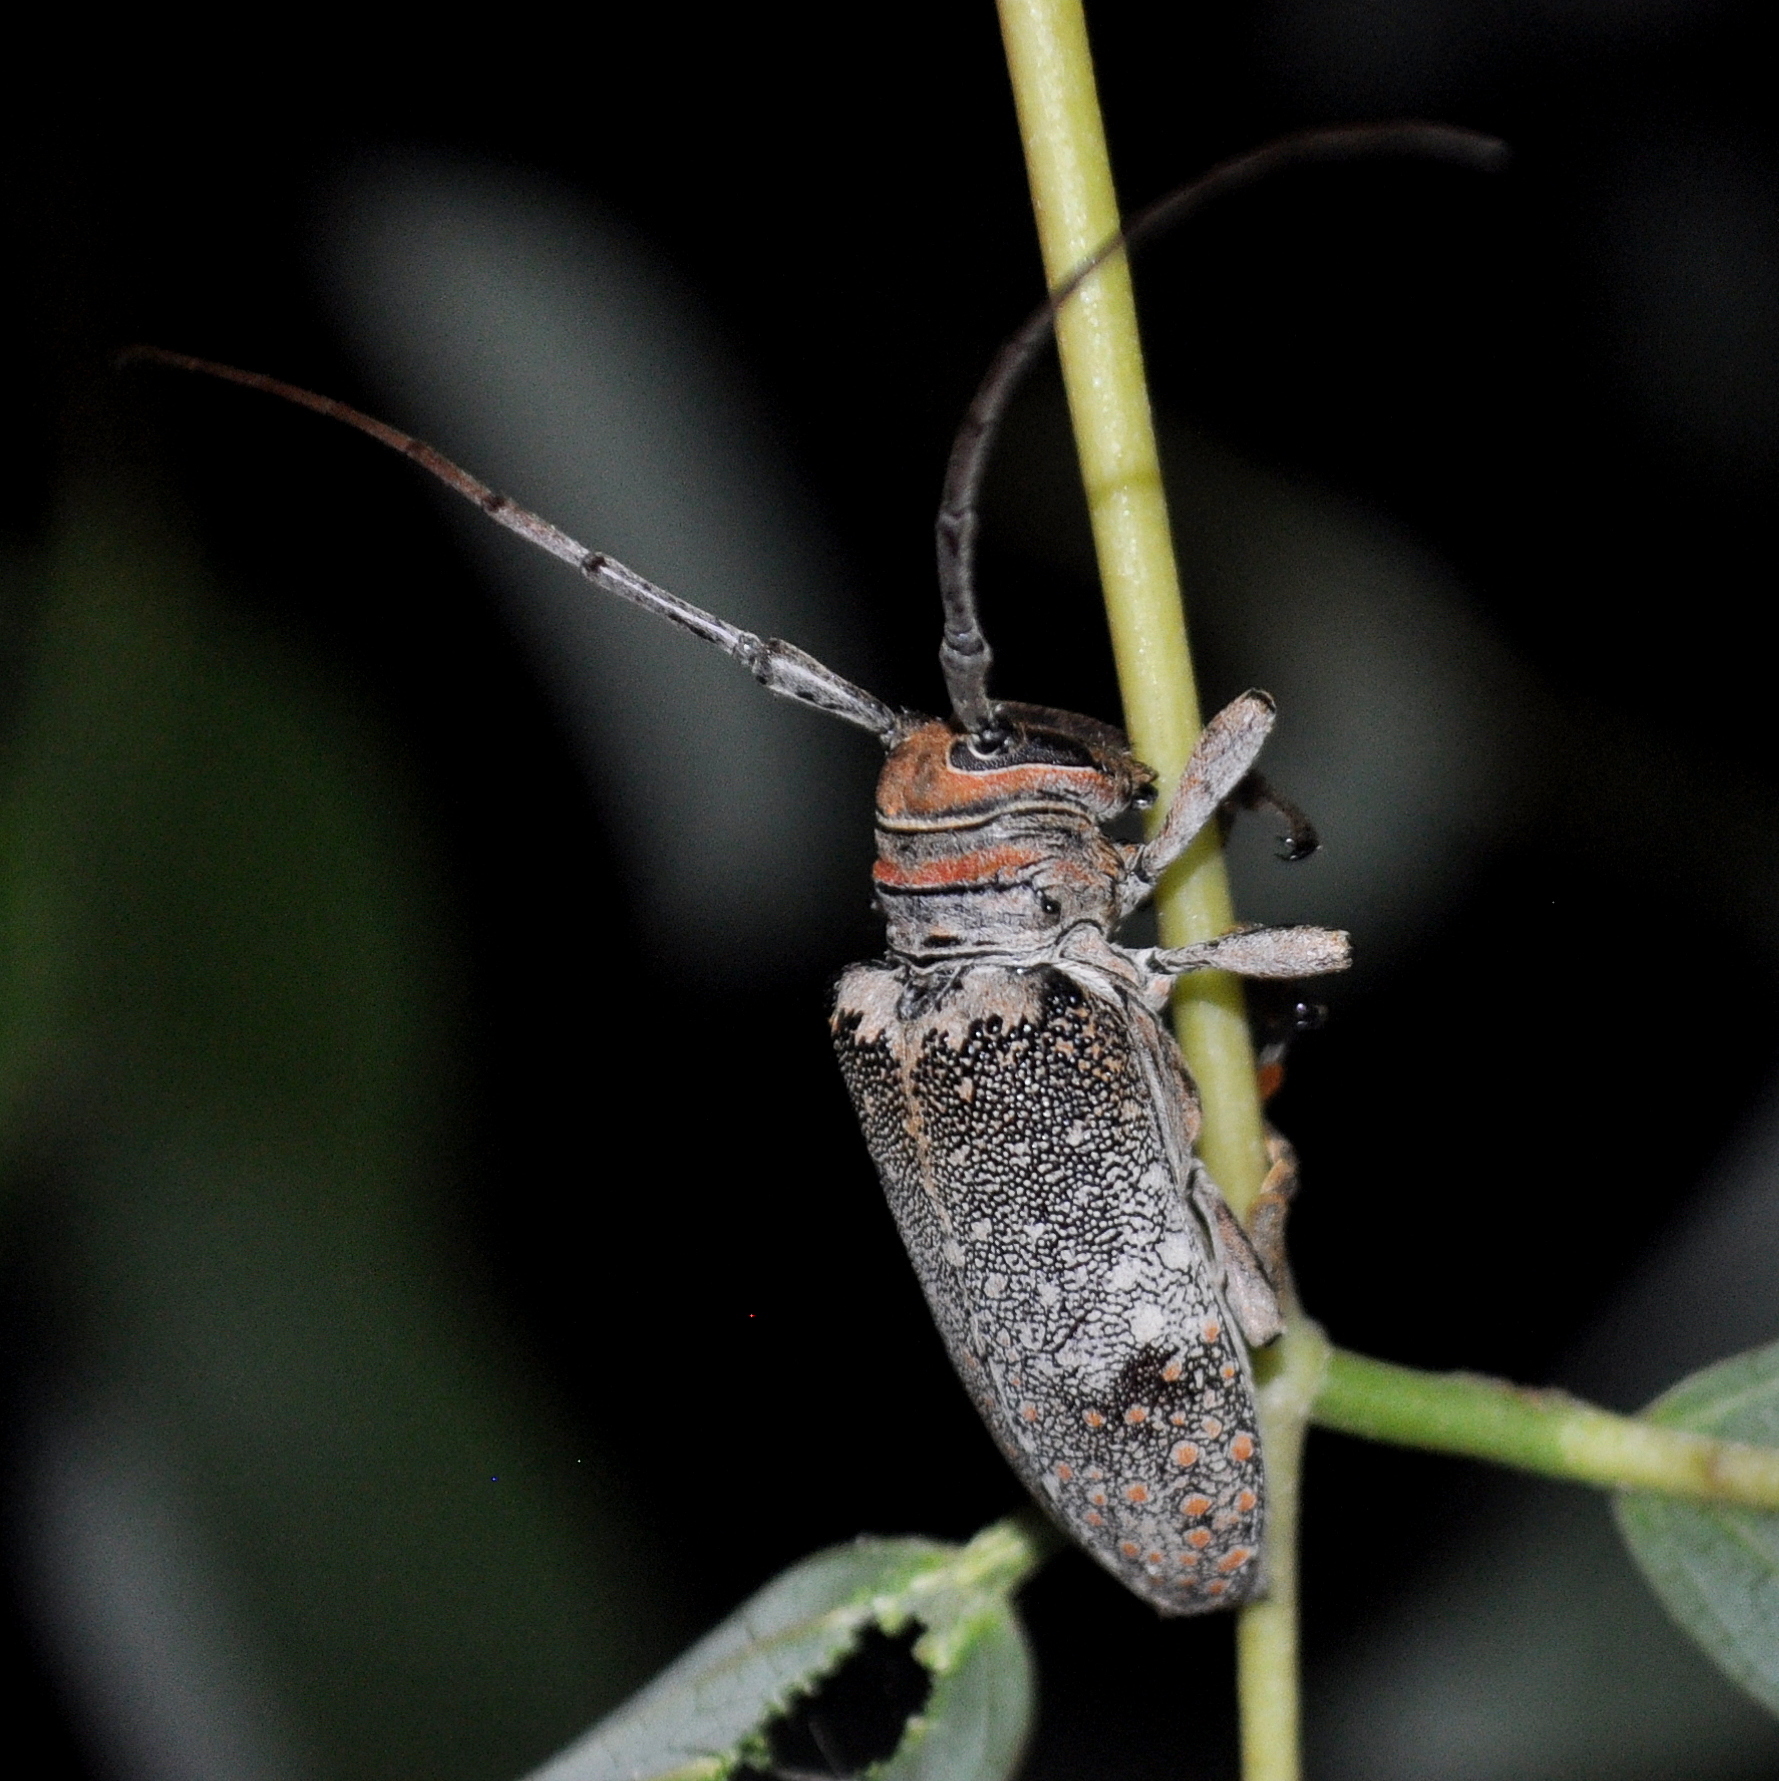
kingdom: Animalia
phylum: Arthropoda
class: Insecta
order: Coleoptera
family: Cerambycidae
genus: Oncideres
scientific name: Oncideres dejeanii
